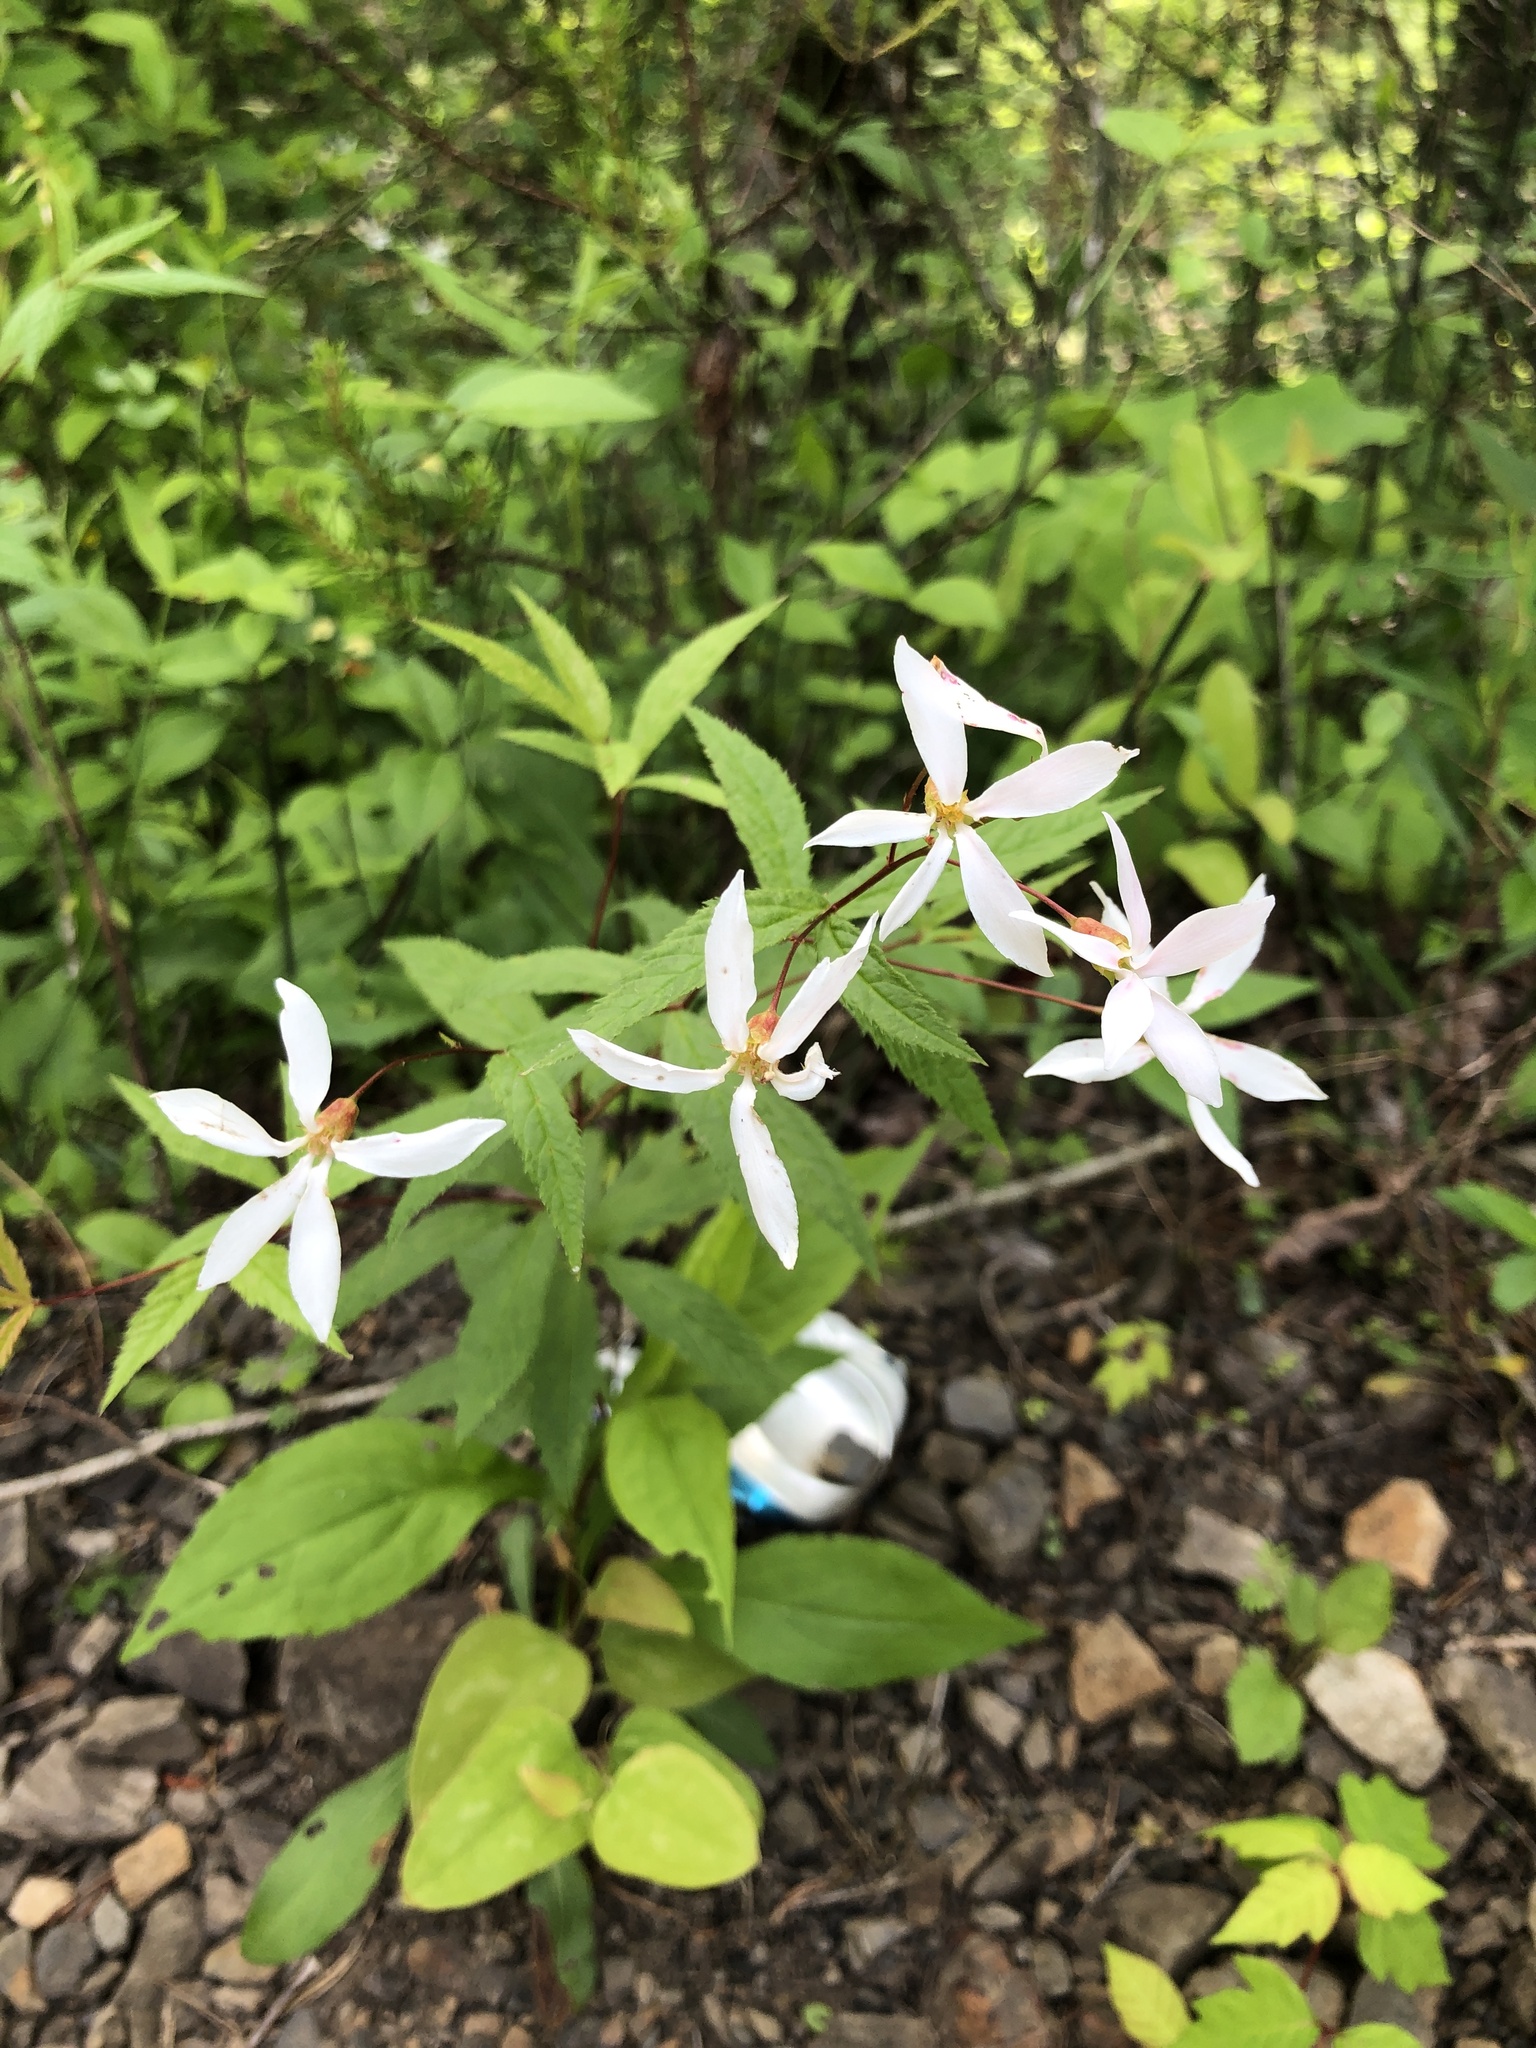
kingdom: Plantae
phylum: Tracheophyta
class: Magnoliopsida
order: Rosales
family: Rosaceae
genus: Gillenia
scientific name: Gillenia trifoliata
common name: Bowman's-root
